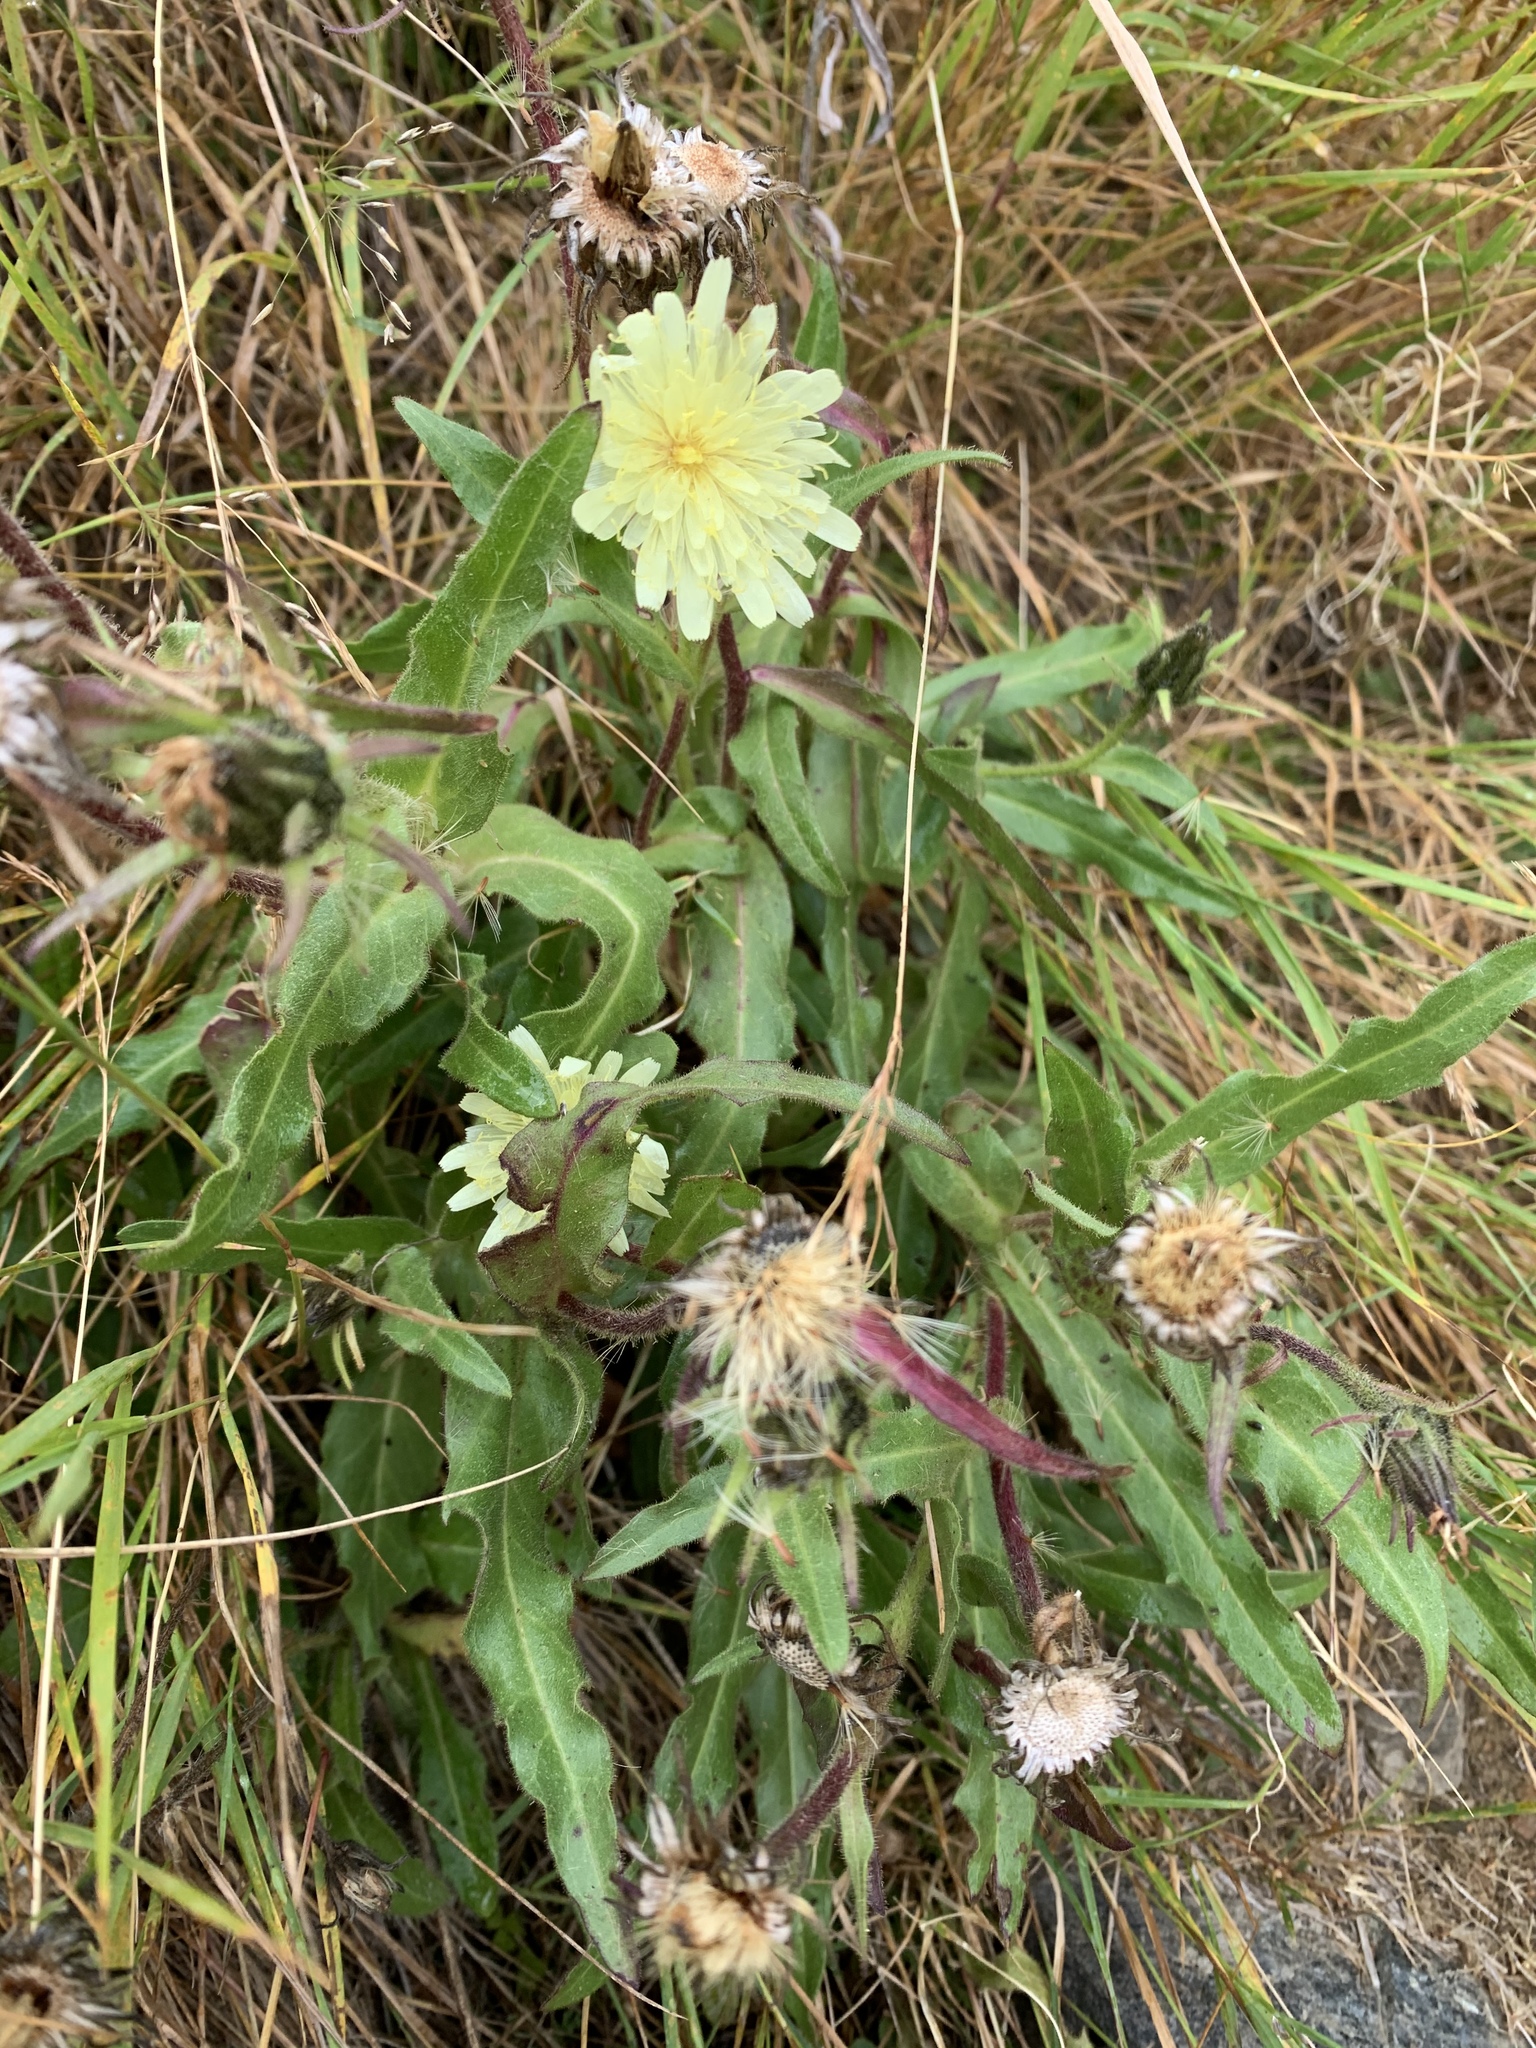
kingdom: Plantae
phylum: Tracheophyta
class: Magnoliopsida
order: Asterales
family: Asteraceae
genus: Schlagintweitia
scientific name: Schlagintweitia intybacea
